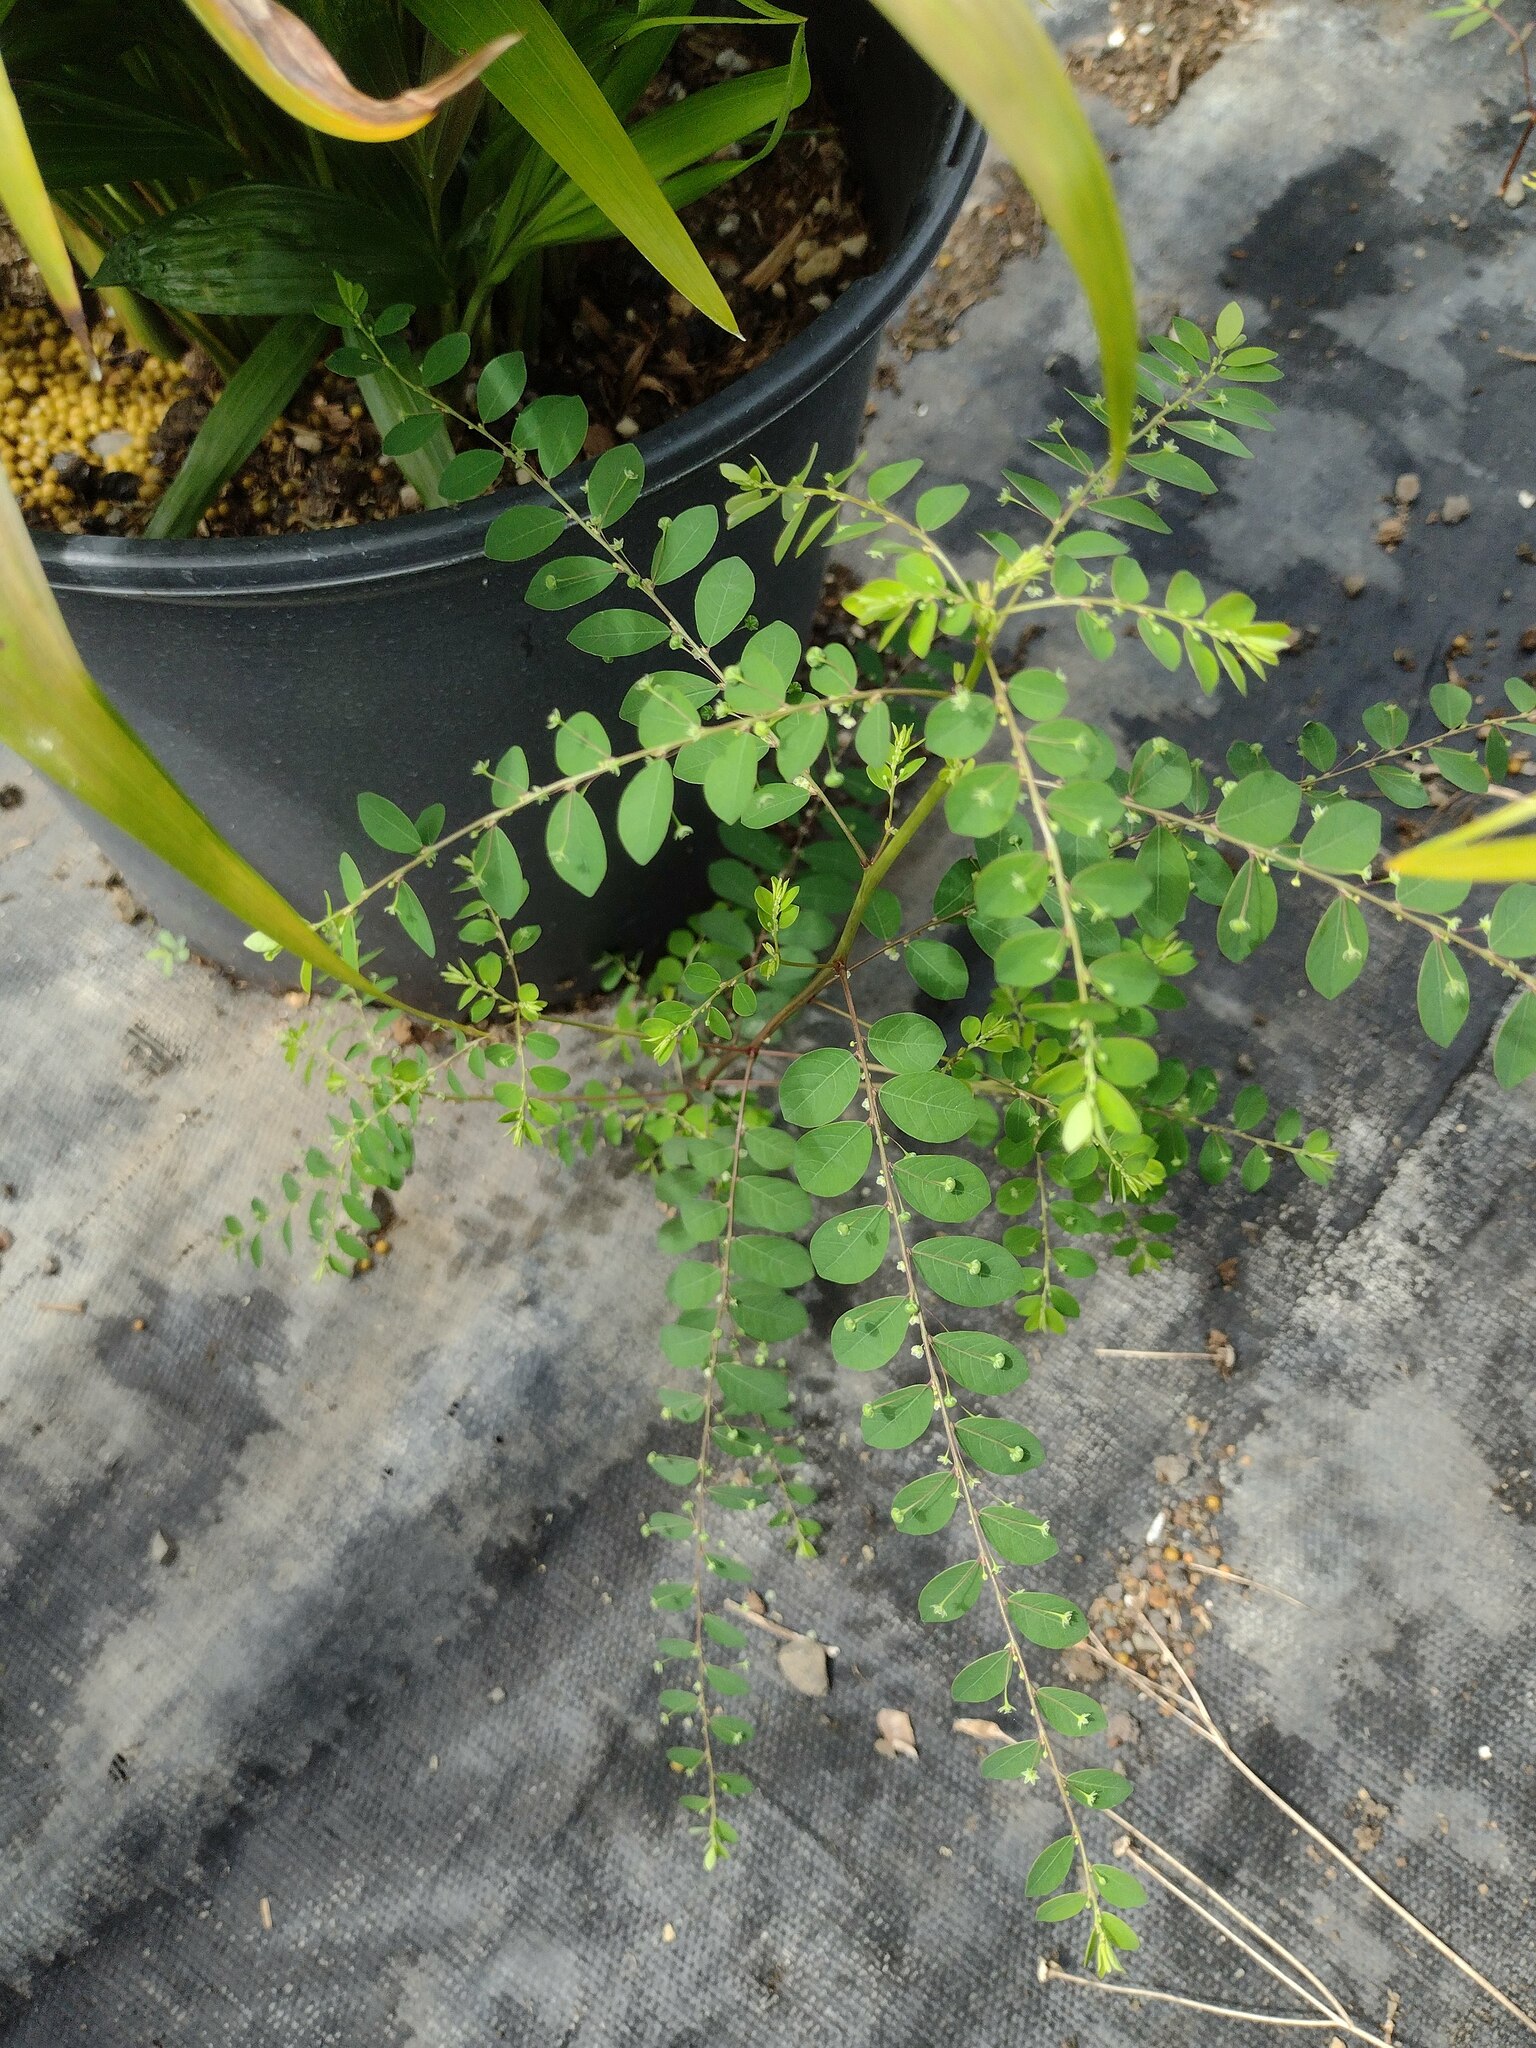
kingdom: Plantae
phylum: Tracheophyta
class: Magnoliopsida
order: Malpighiales
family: Phyllanthaceae
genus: Phyllanthus
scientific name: Phyllanthus tenellus
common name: Mascarene island leaf-flower
